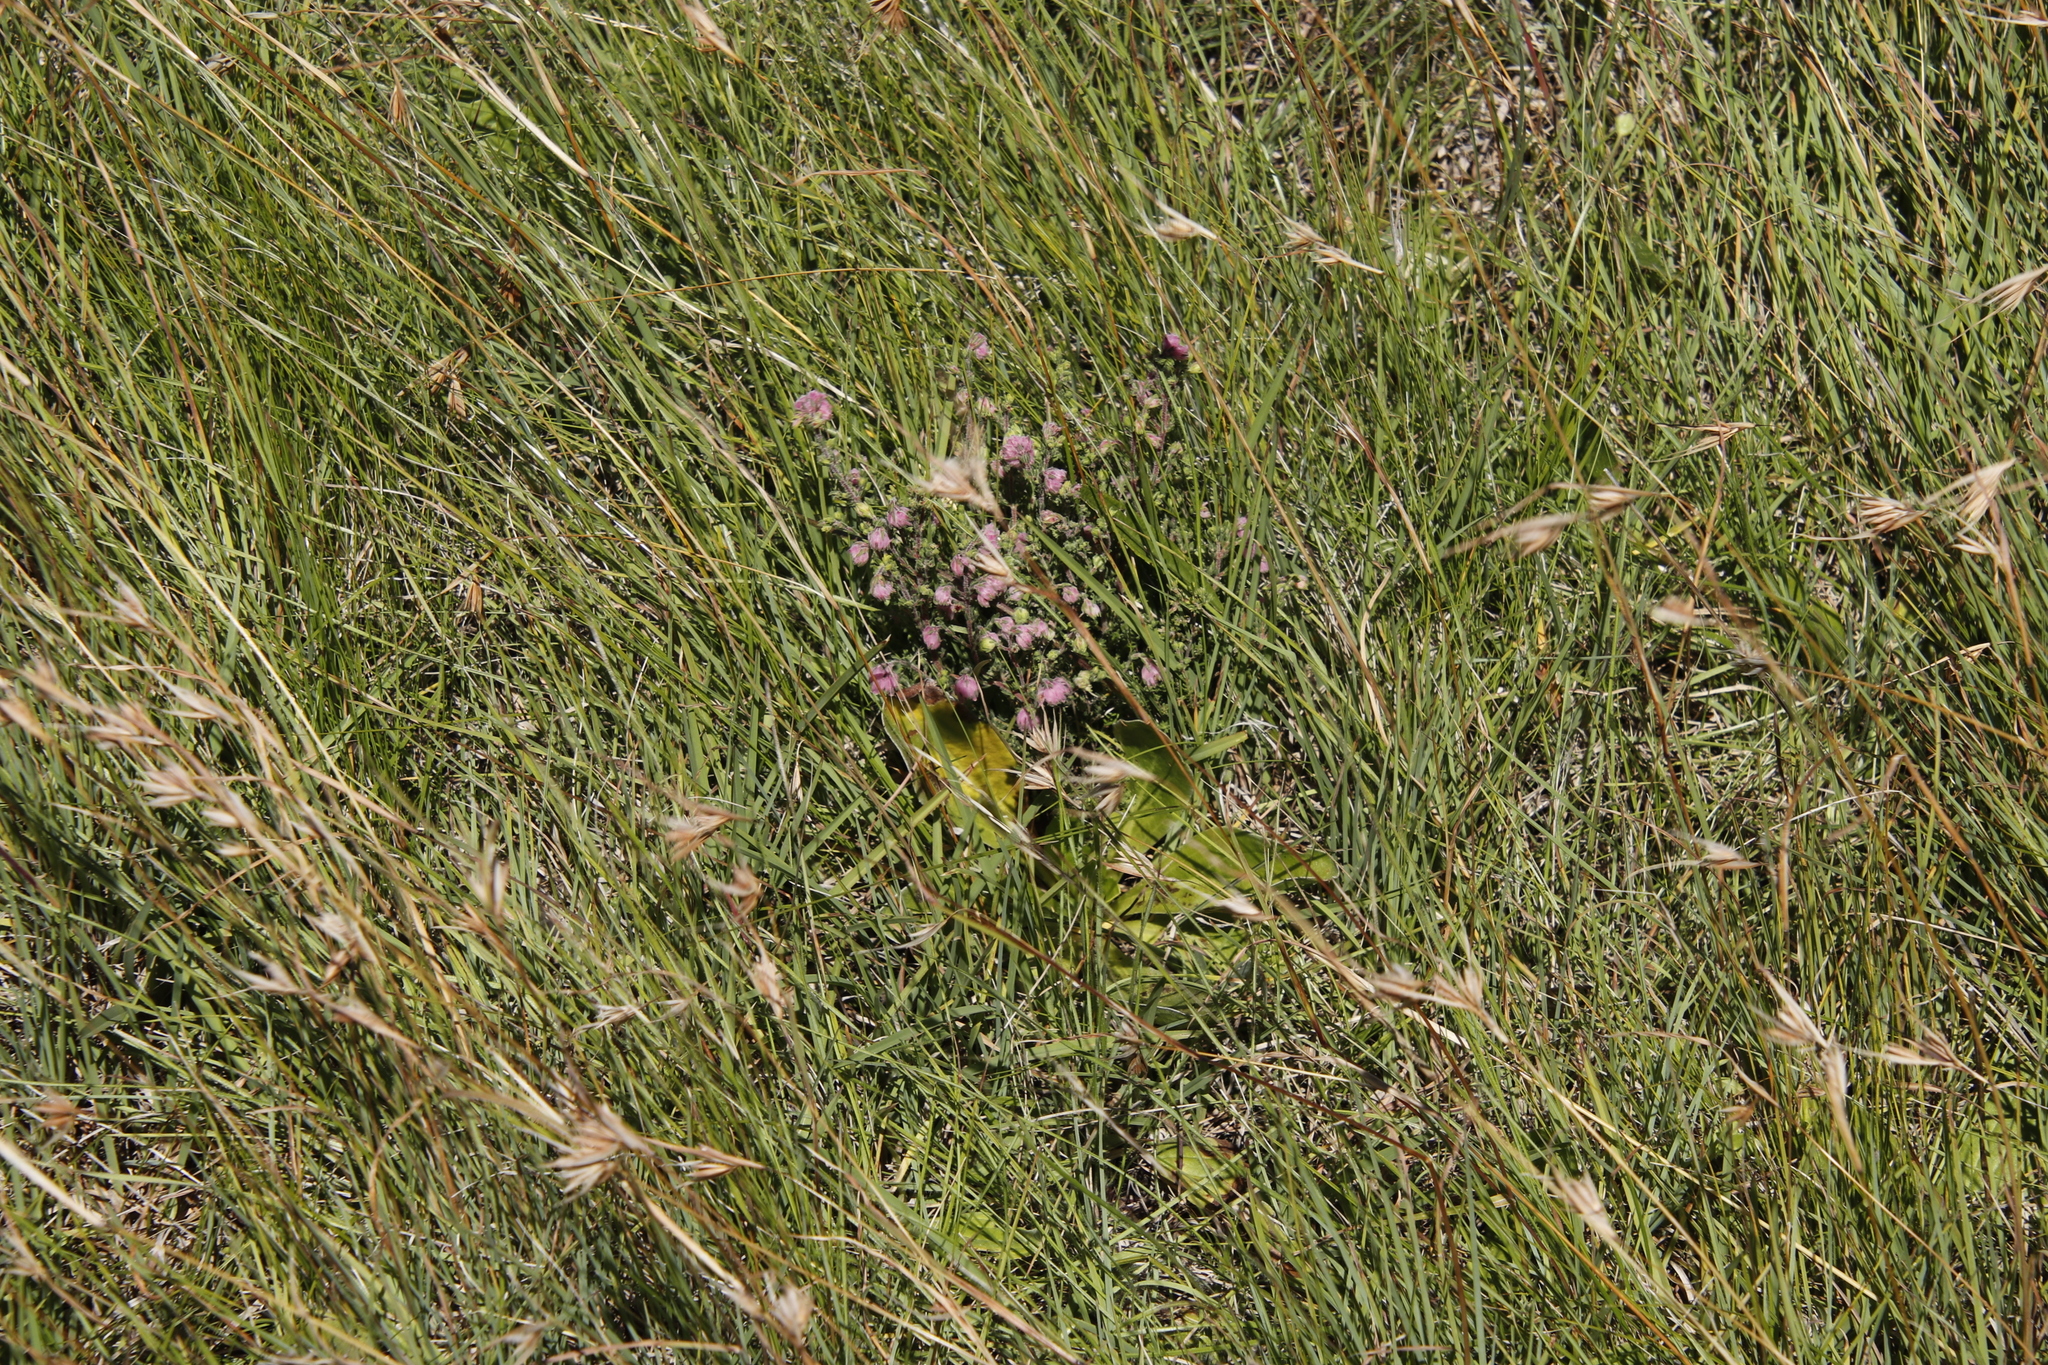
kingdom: Plantae
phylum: Tracheophyta
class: Magnoliopsida
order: Ericales
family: Ericaceae
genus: Erica
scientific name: Erica cooperi
